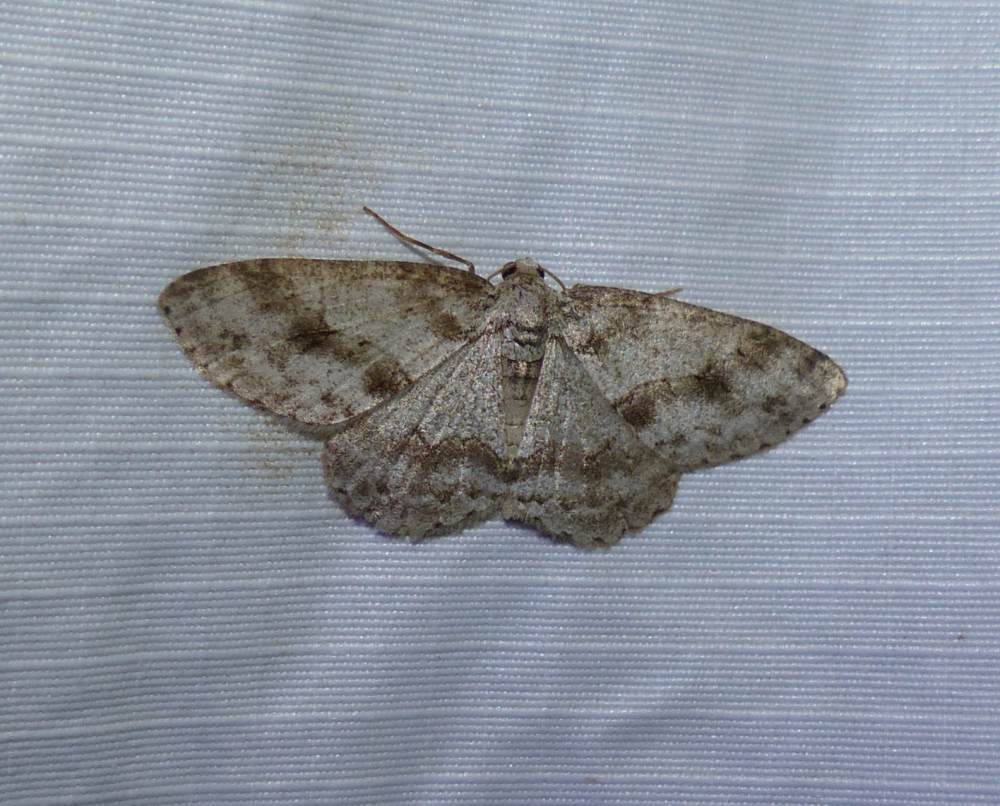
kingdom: Animalia
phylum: Arthropoda
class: Insecta
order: Lepidoptera
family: Geometridae
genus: Ectropis
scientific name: Ectropis crepuscularia
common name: Engrailed
